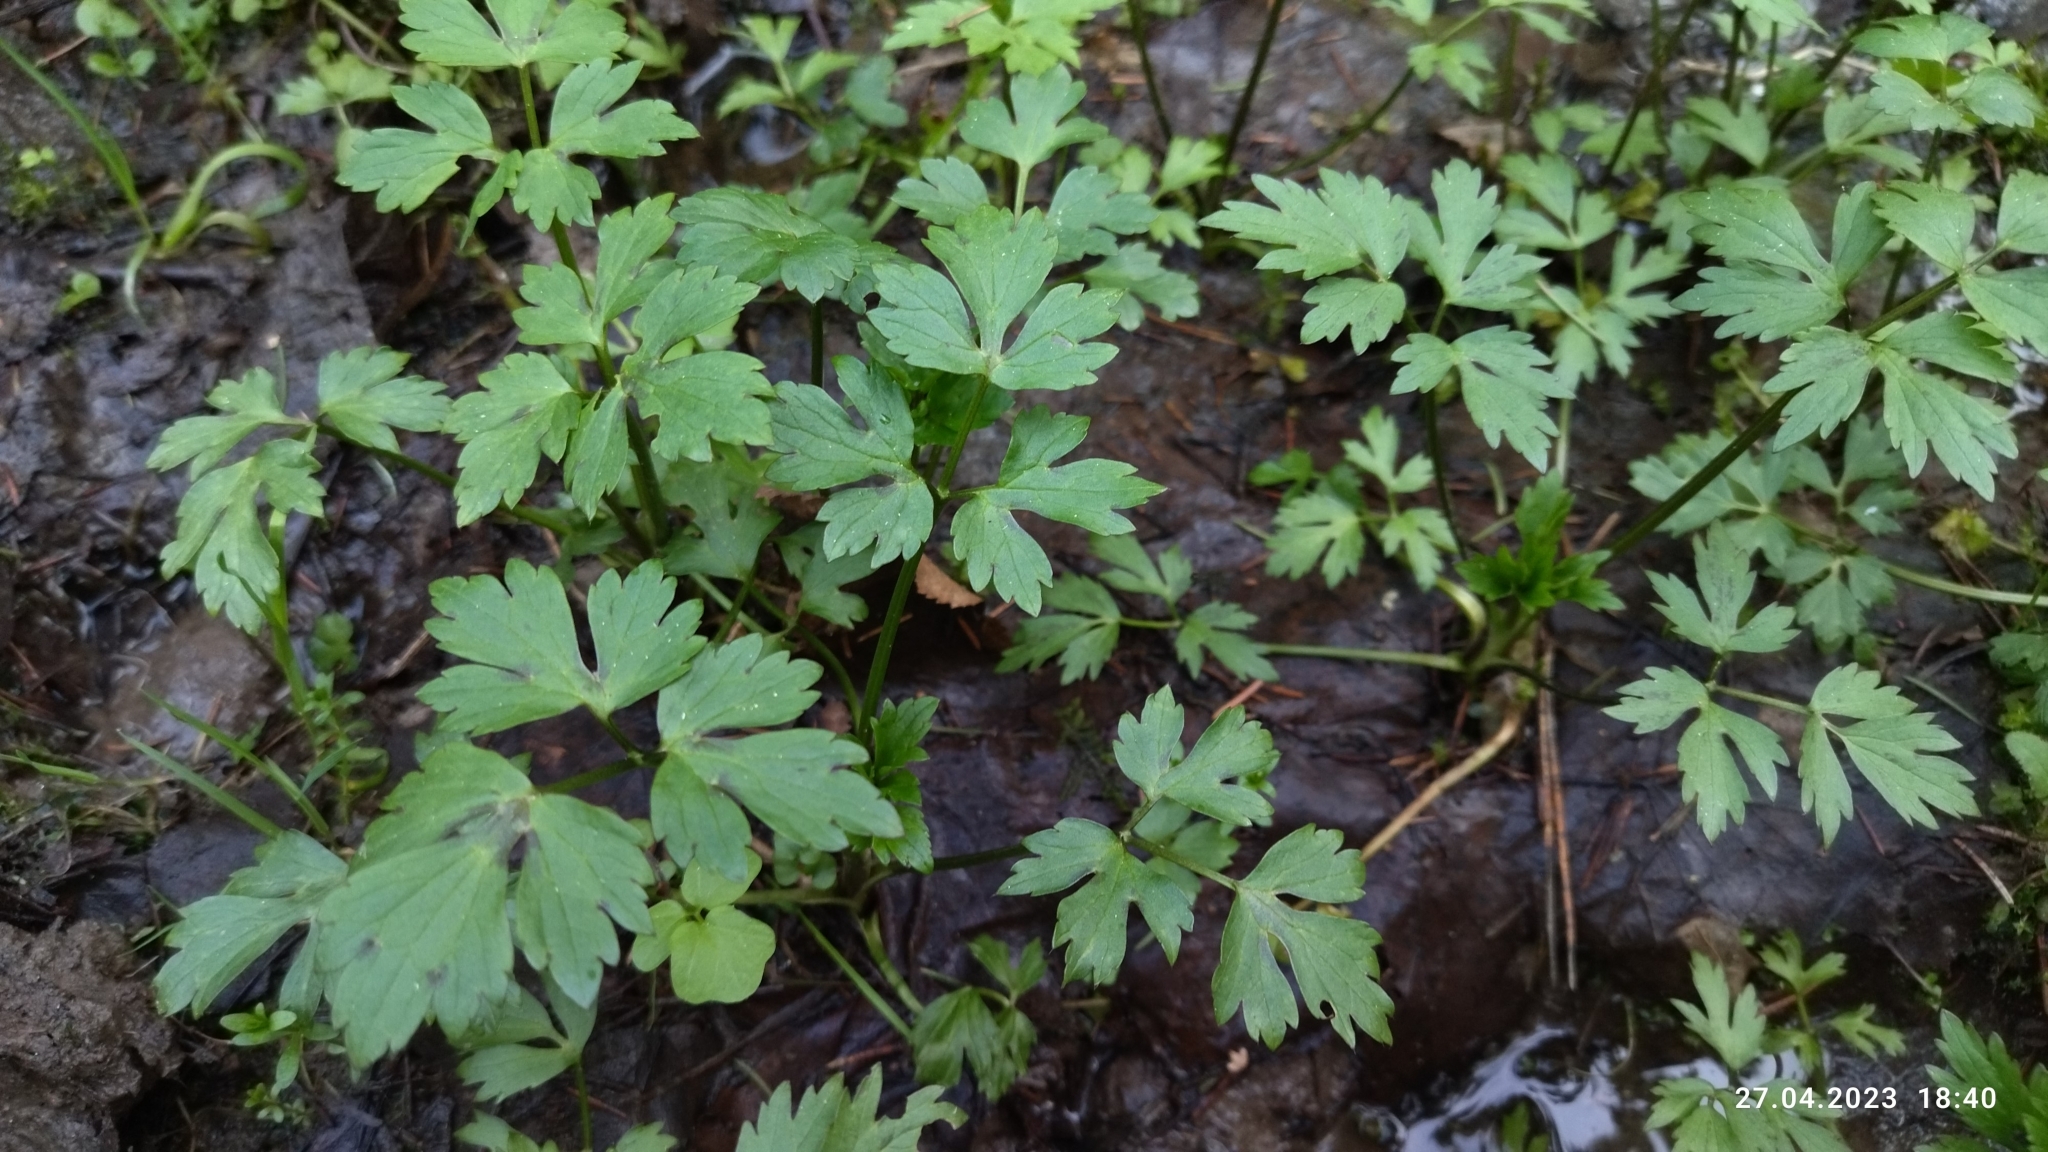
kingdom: Plantae
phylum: Tracheophyta
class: Magnoliopsida
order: Ranunculales
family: Ranunculaceae
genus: Ranunculus
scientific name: Ranunculus repens
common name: Creeping buttercup
